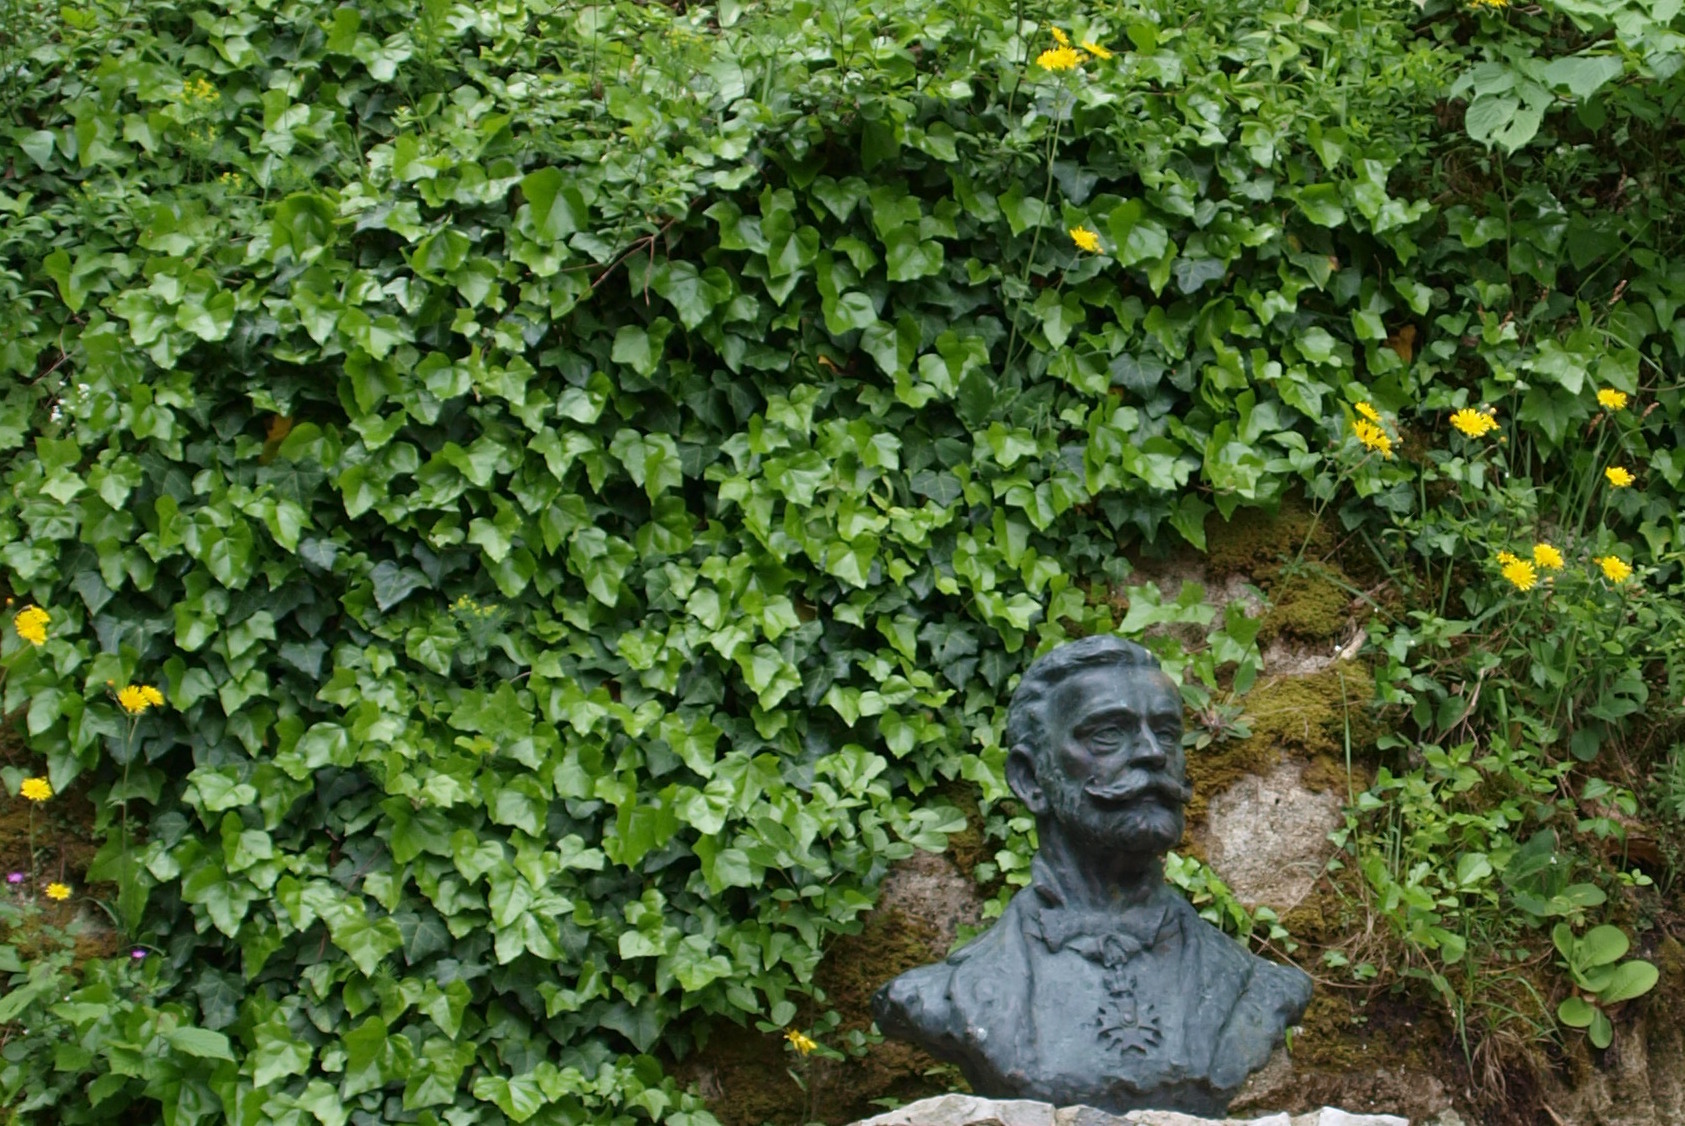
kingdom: Plantae
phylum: Tracheophyta
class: Magnoliopsida
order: Apiales
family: Araliaceae
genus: Hedera
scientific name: Hedera helix
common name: Ivy
